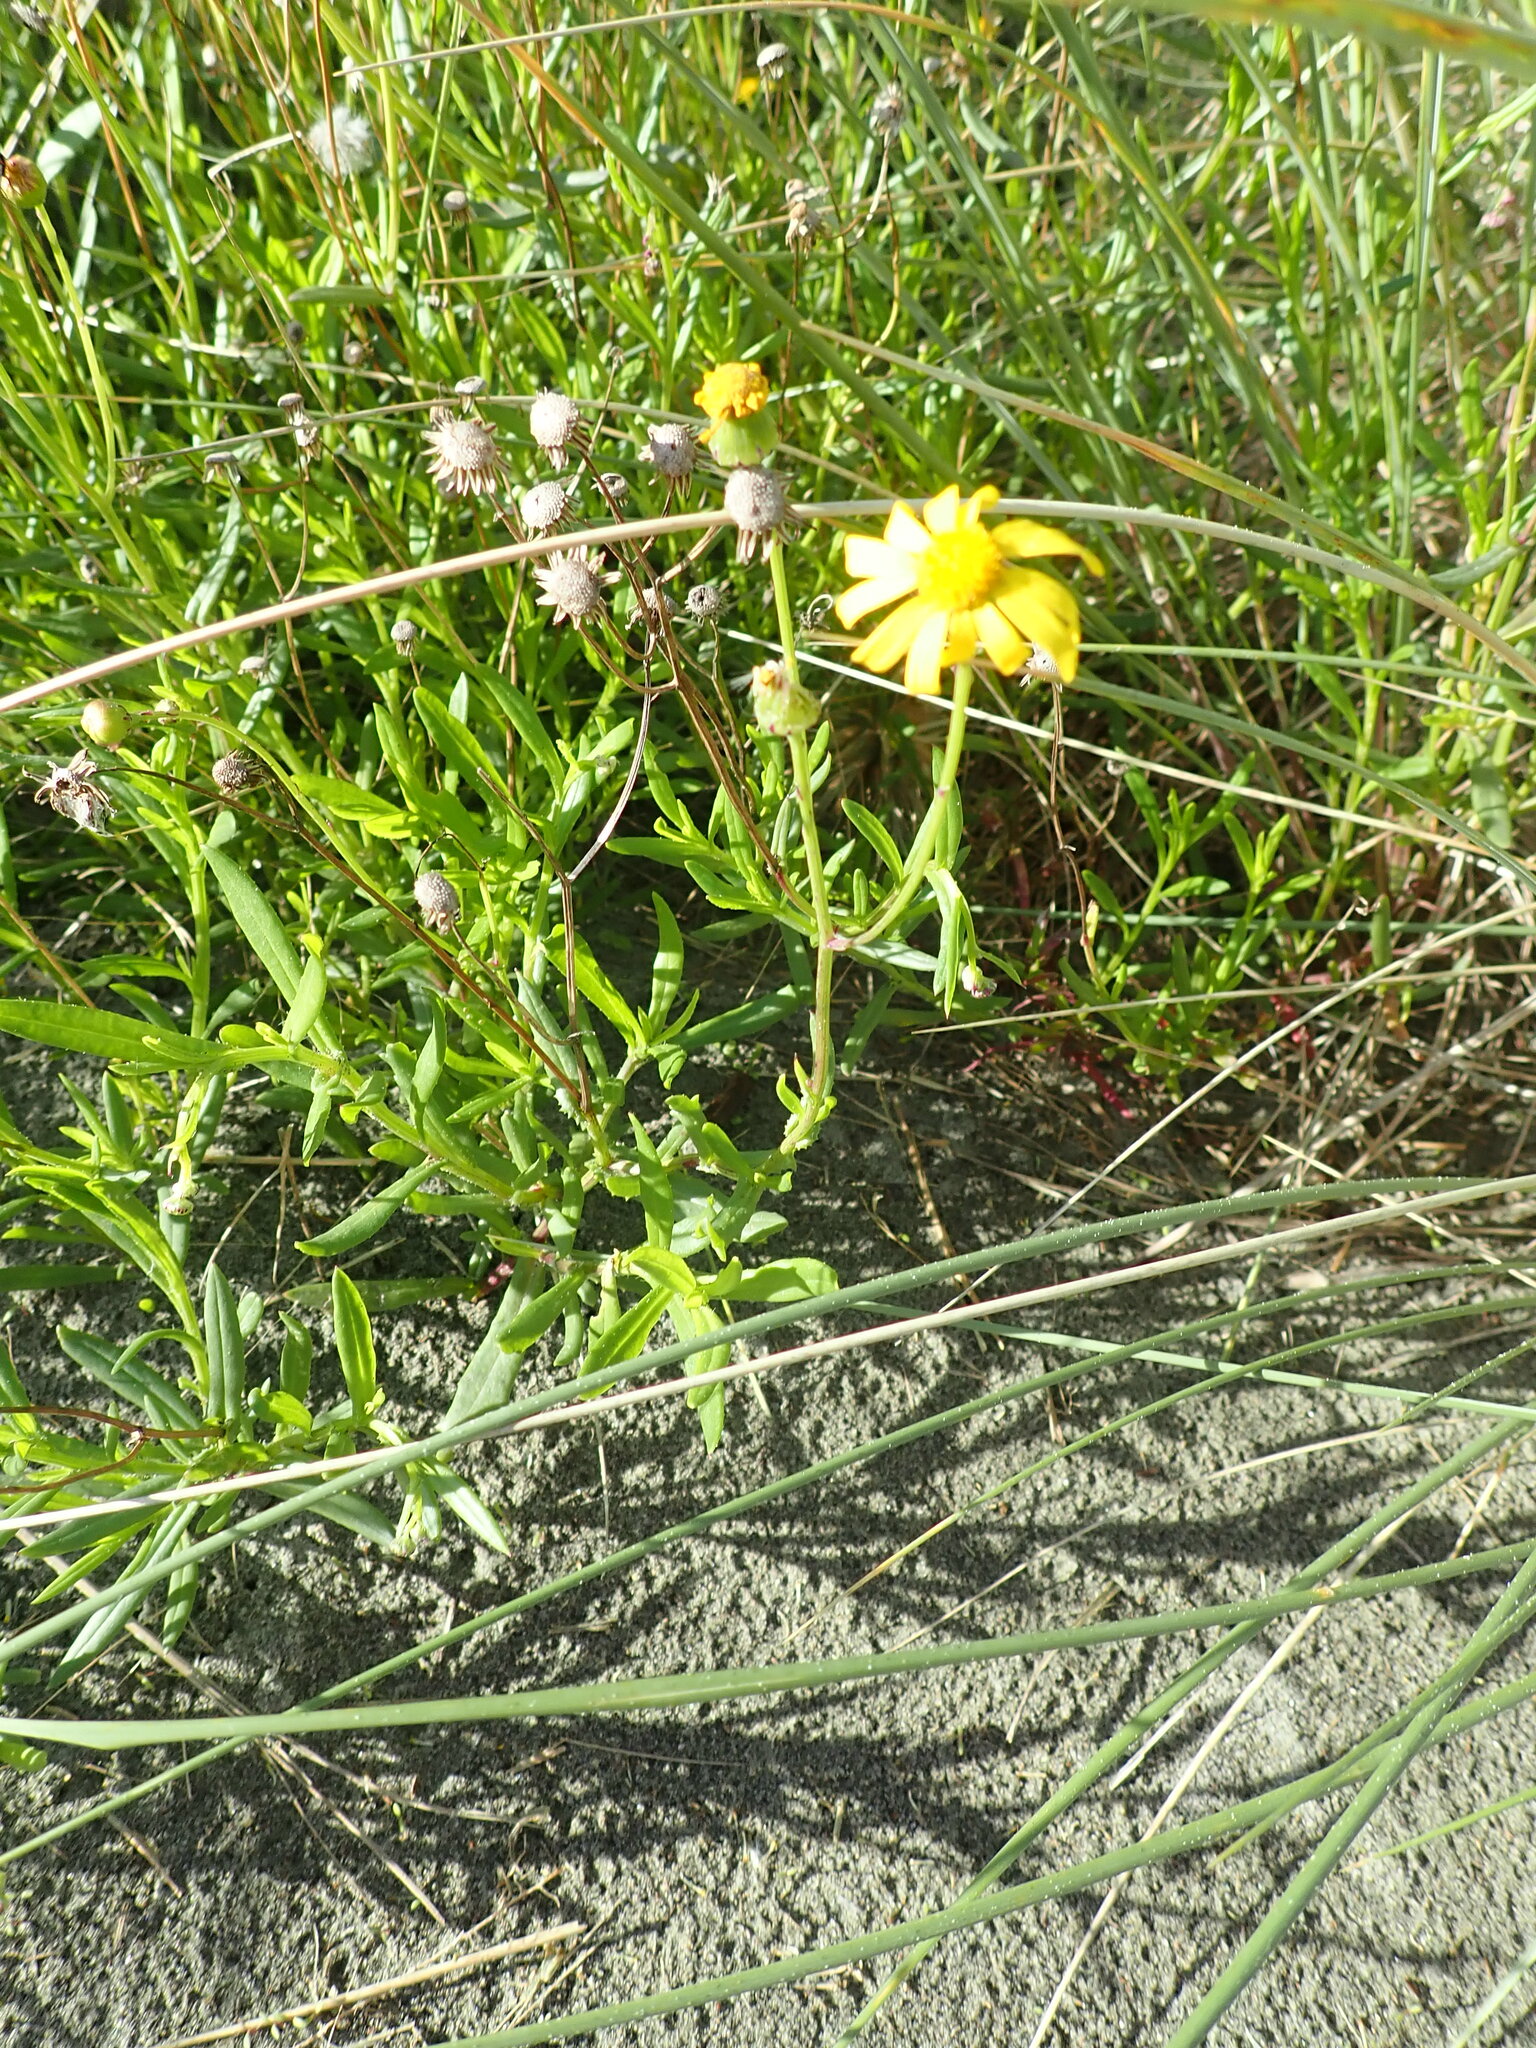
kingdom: Plantae
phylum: Tracheophyta
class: Magnoliopsida
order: Asterales
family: Asteraceae
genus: Senecio
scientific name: Senecio skirrhodon
